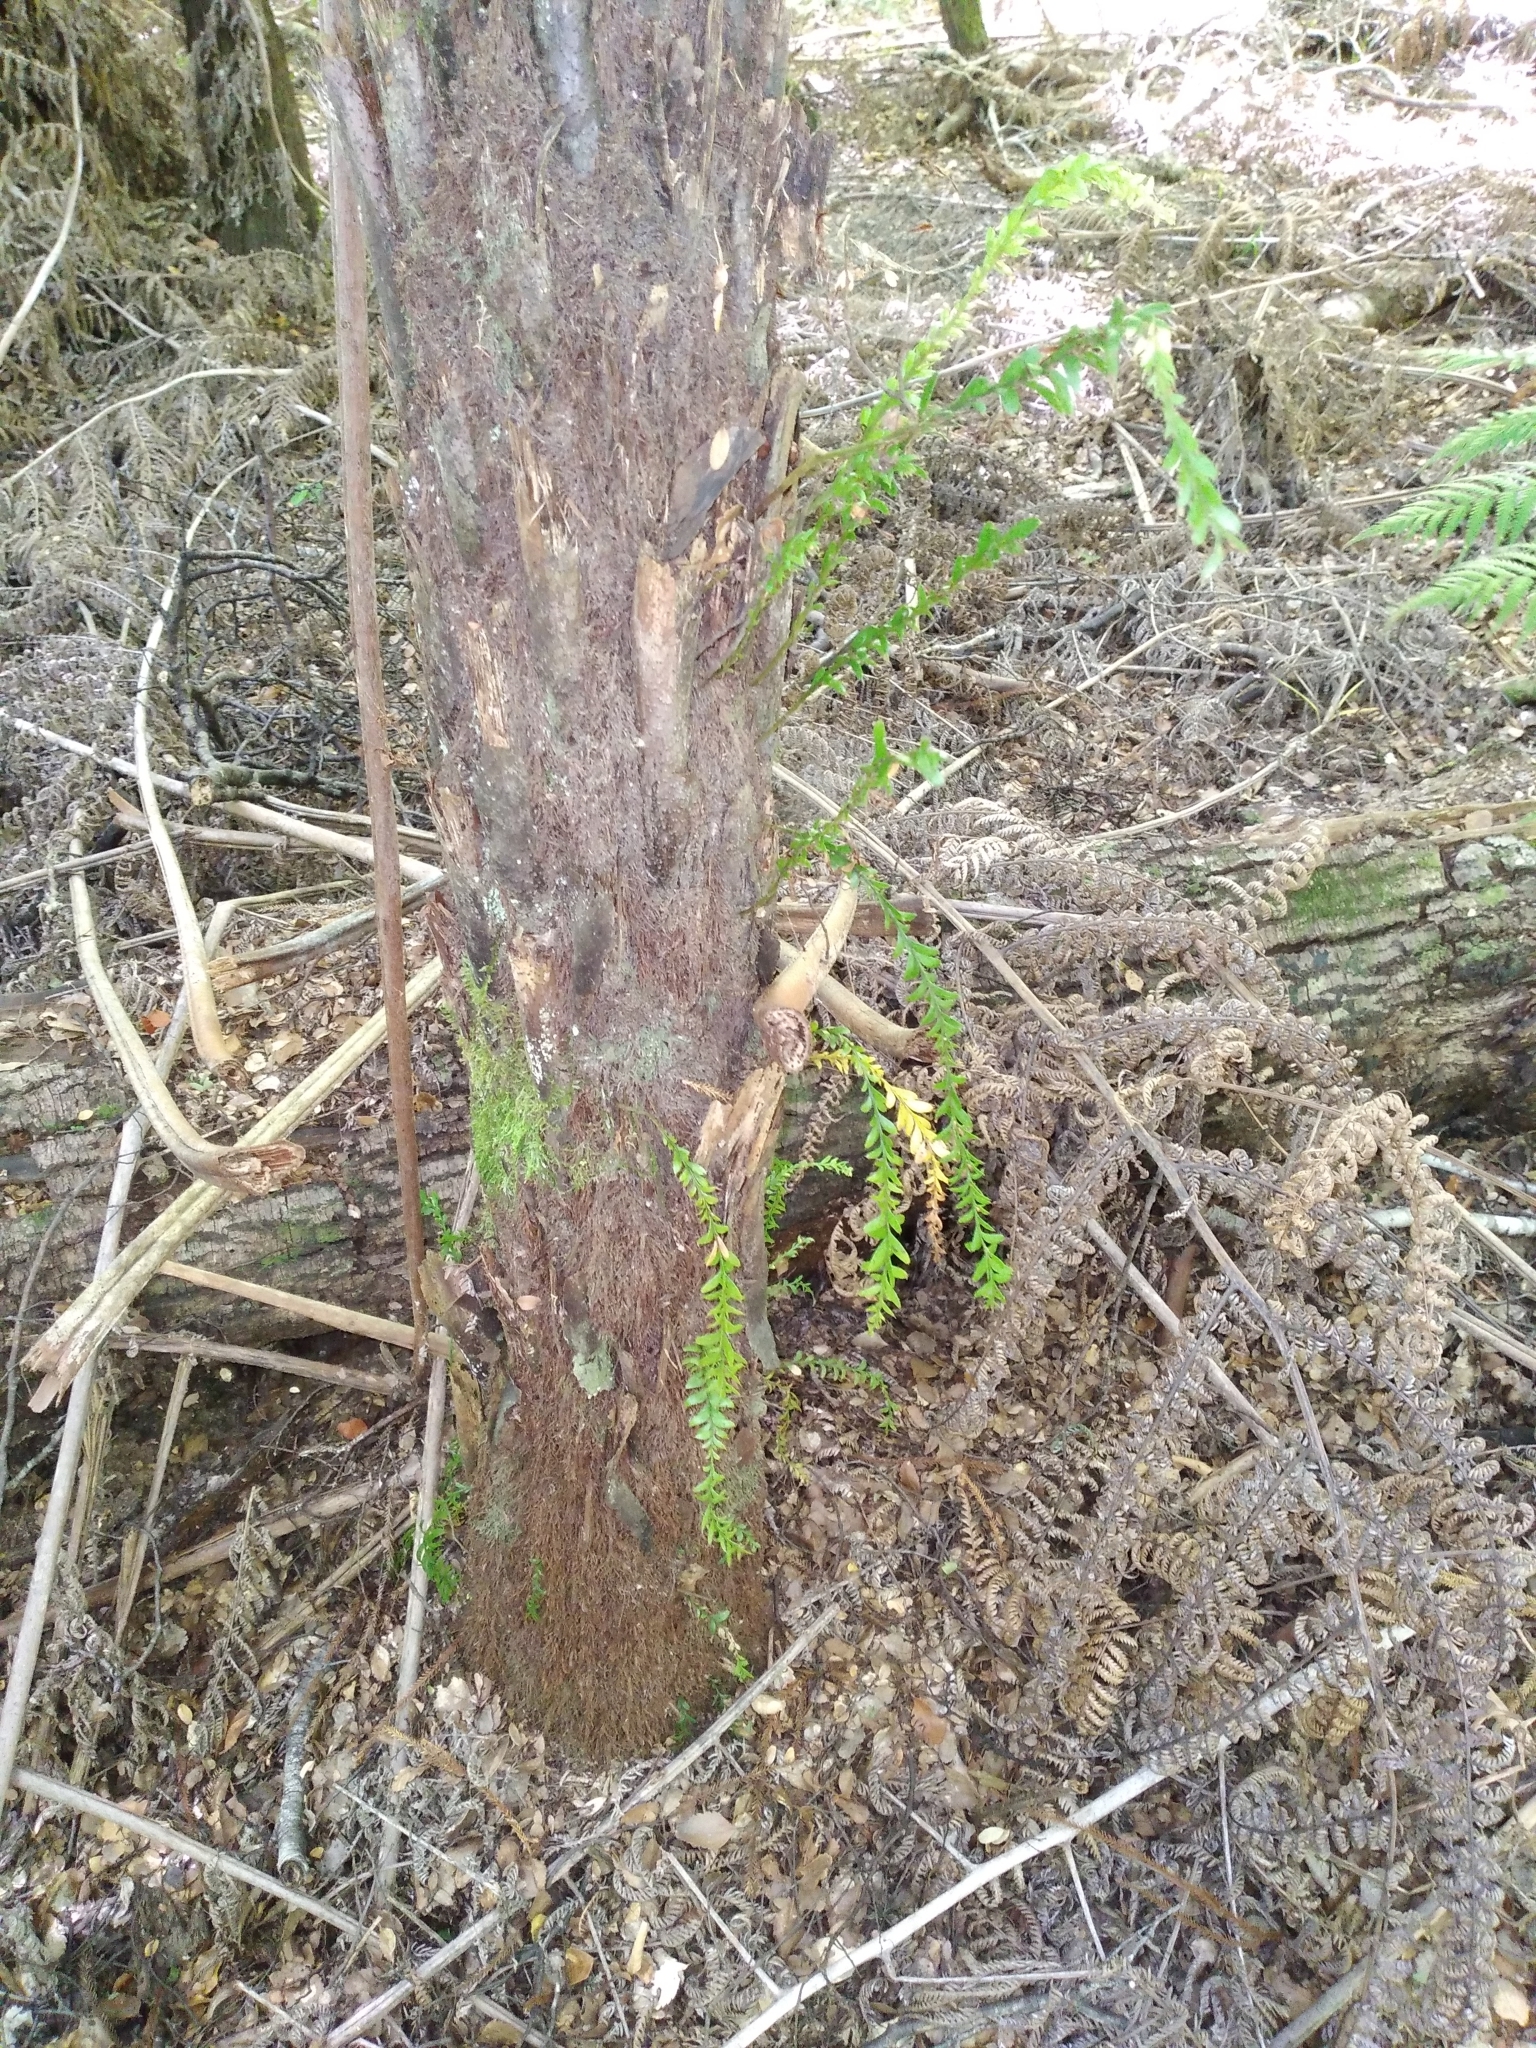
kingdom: Plantae
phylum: Tracheophyta
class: Polypodiopsida
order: Psilotales
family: Psilotaceae
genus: Tmesipteris
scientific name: Tmesipteris tannensis
